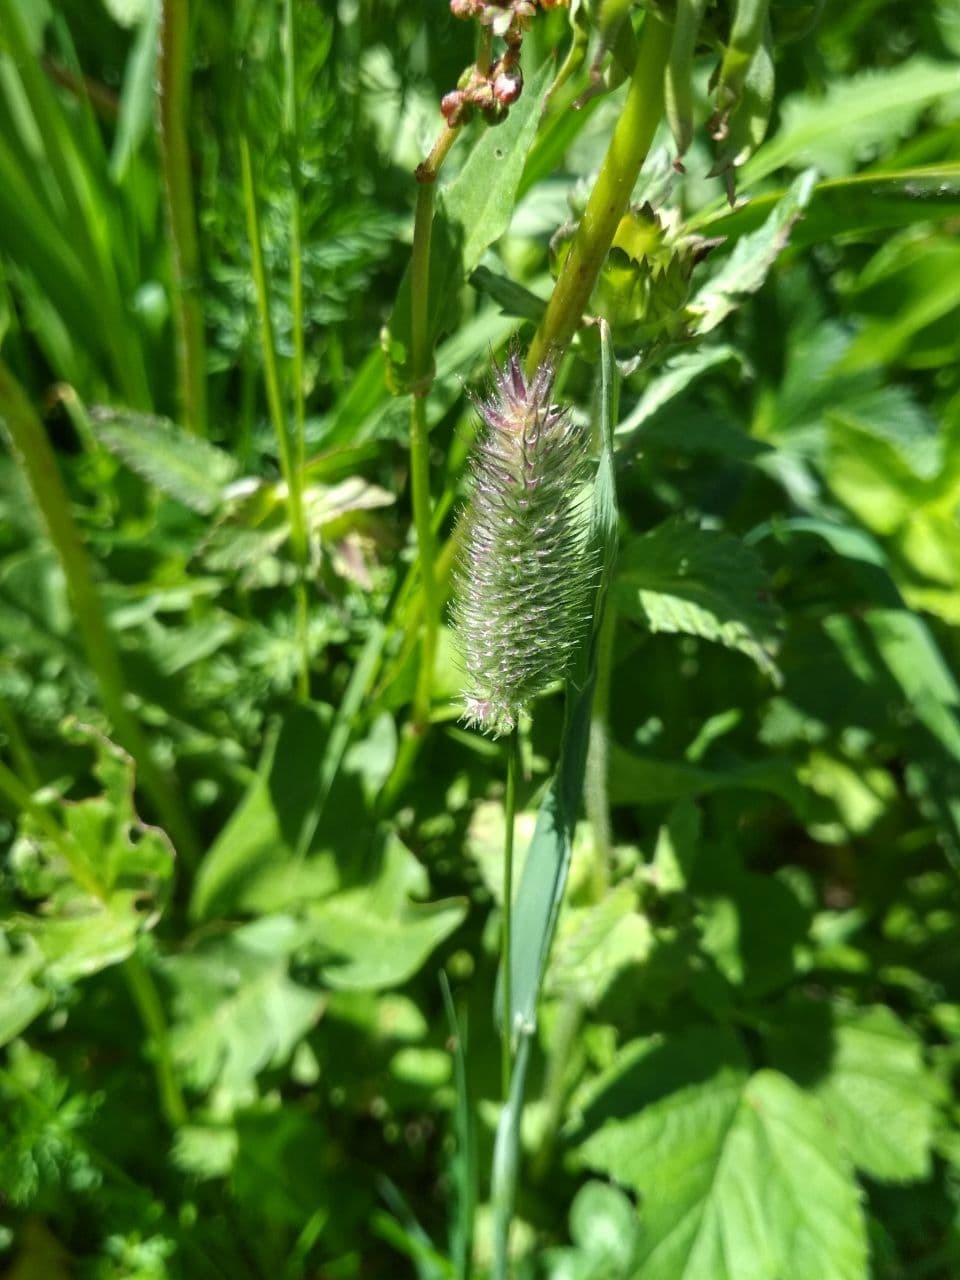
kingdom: Plantae
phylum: Tracheophyta
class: Liliopsida
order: Poales
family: Poaceae
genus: Phleum
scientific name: Phleum alpinum
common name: Alpine cat's-tail
